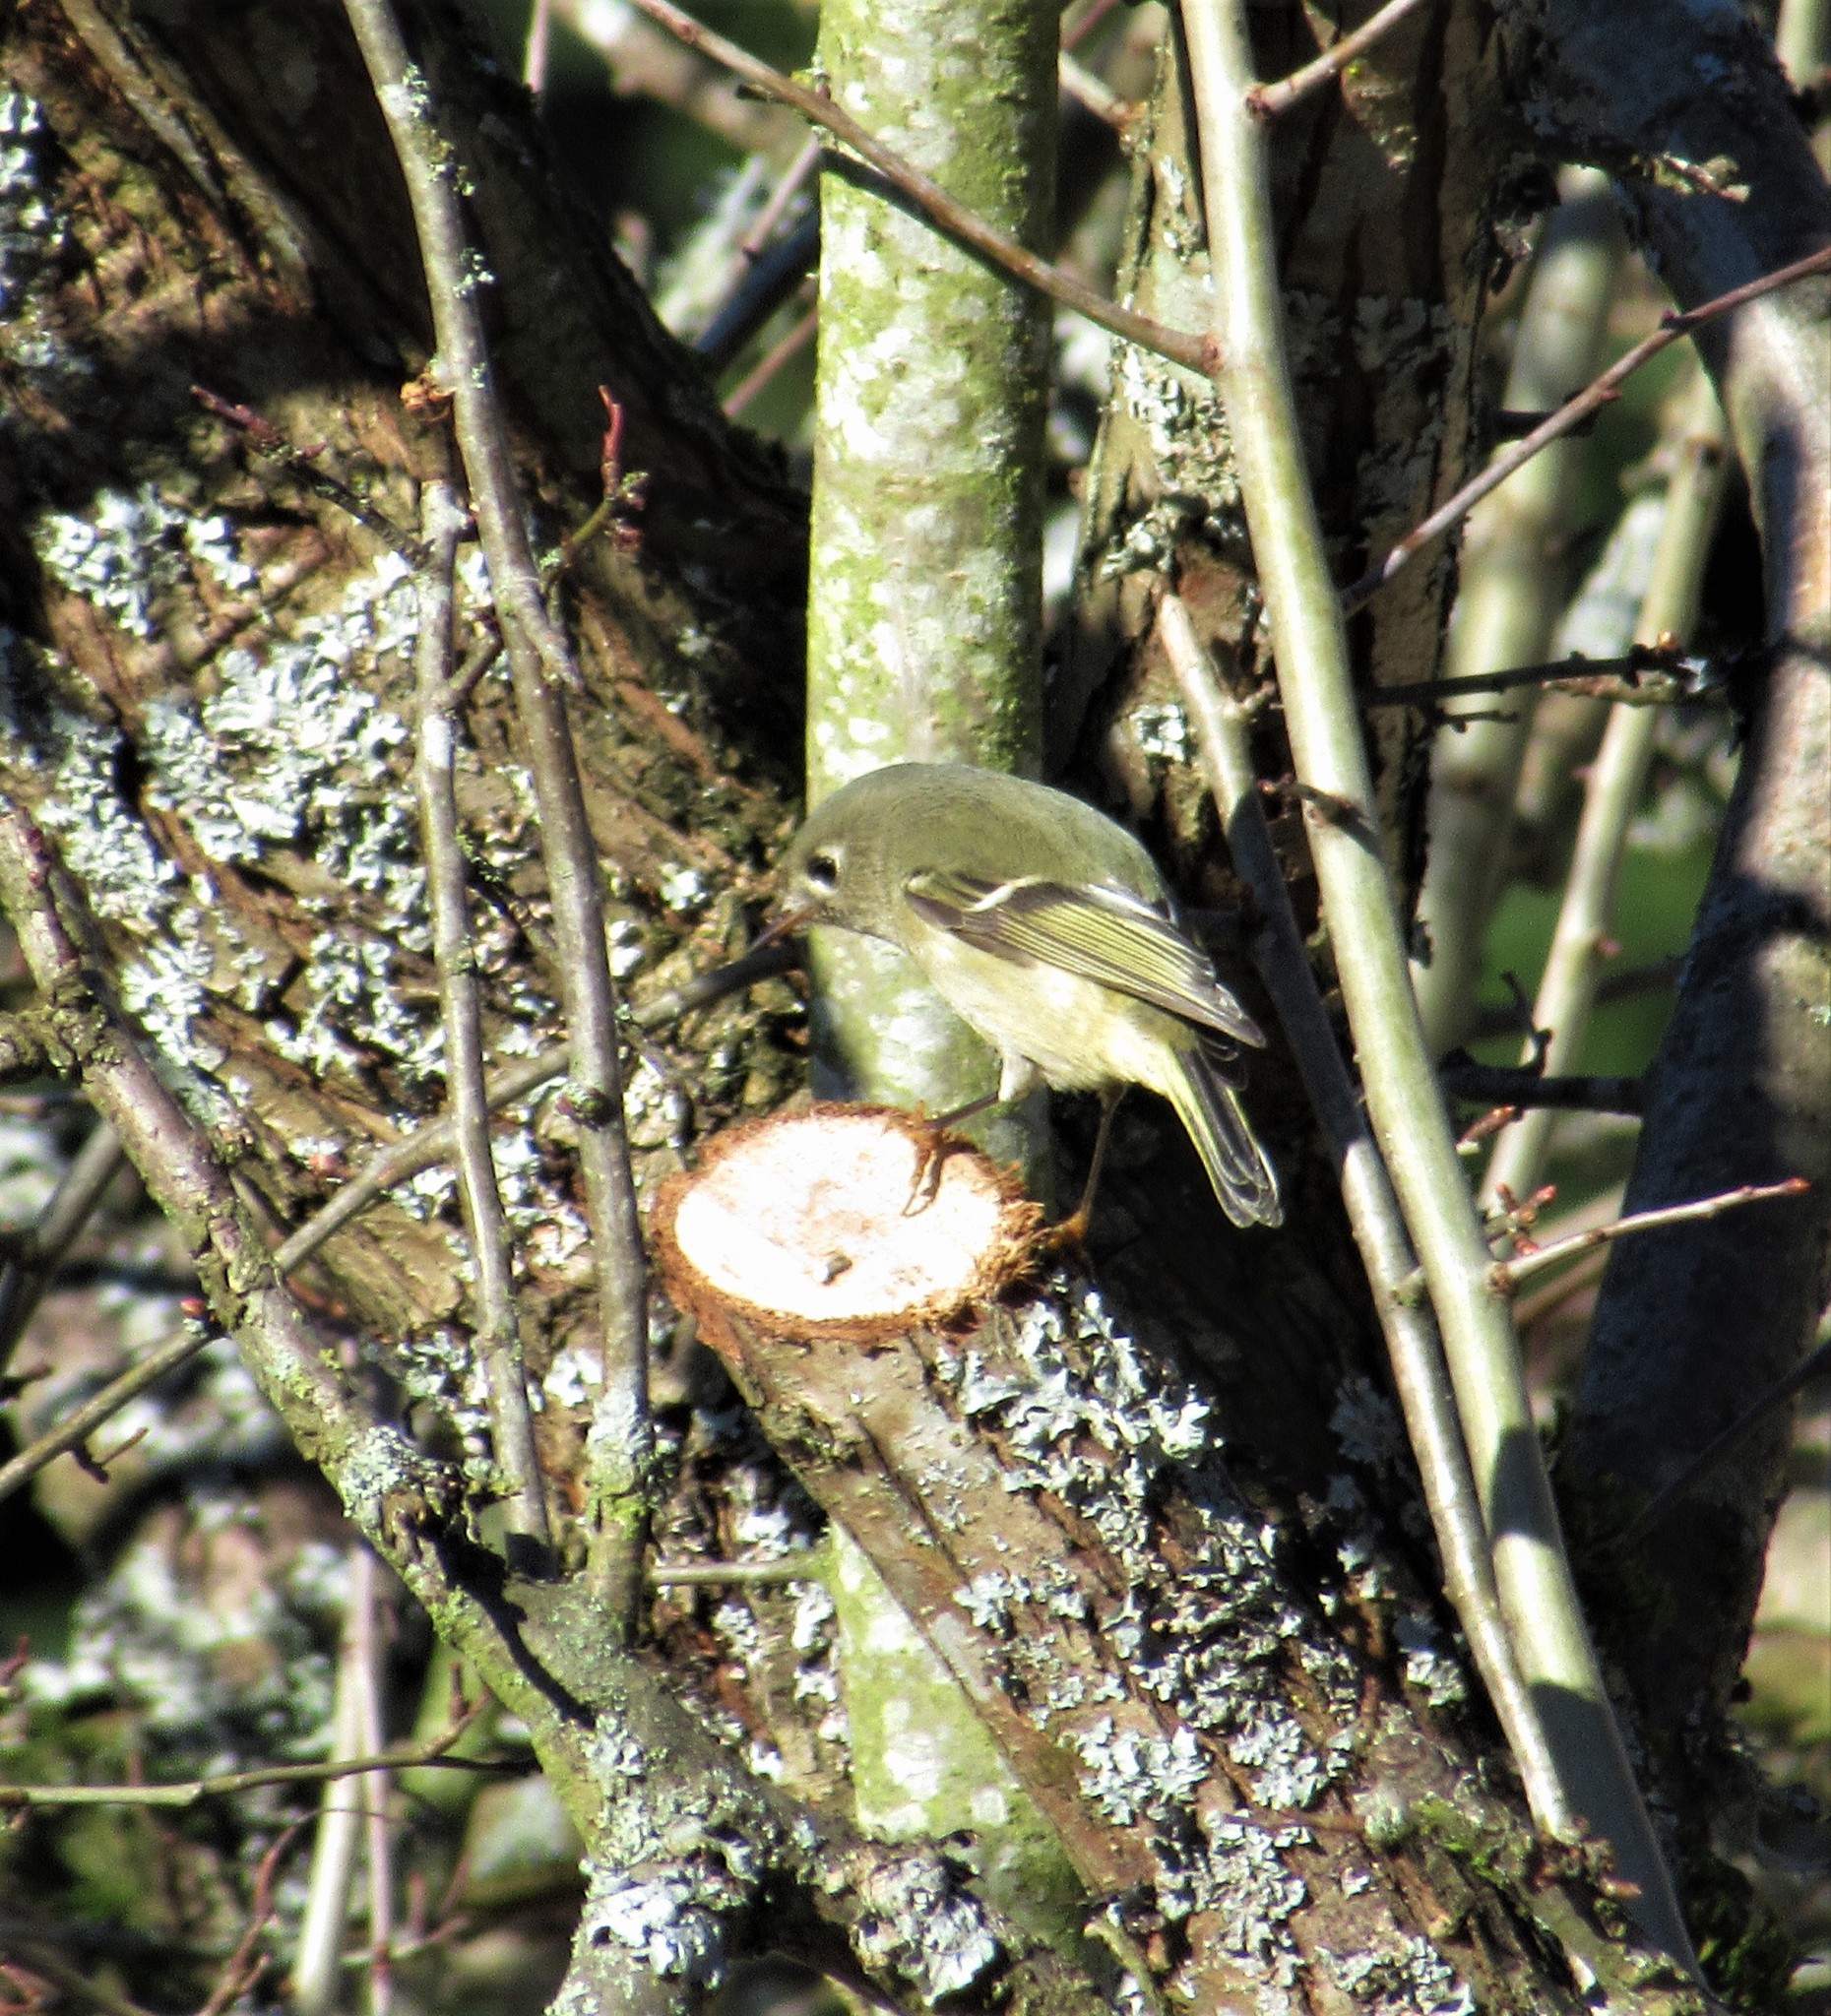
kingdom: Animalia
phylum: Chordata
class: Aves
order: Passeriformes
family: Regulidae
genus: Regulus
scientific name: Regulus calendula
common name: Ruby-crowned kinglet
